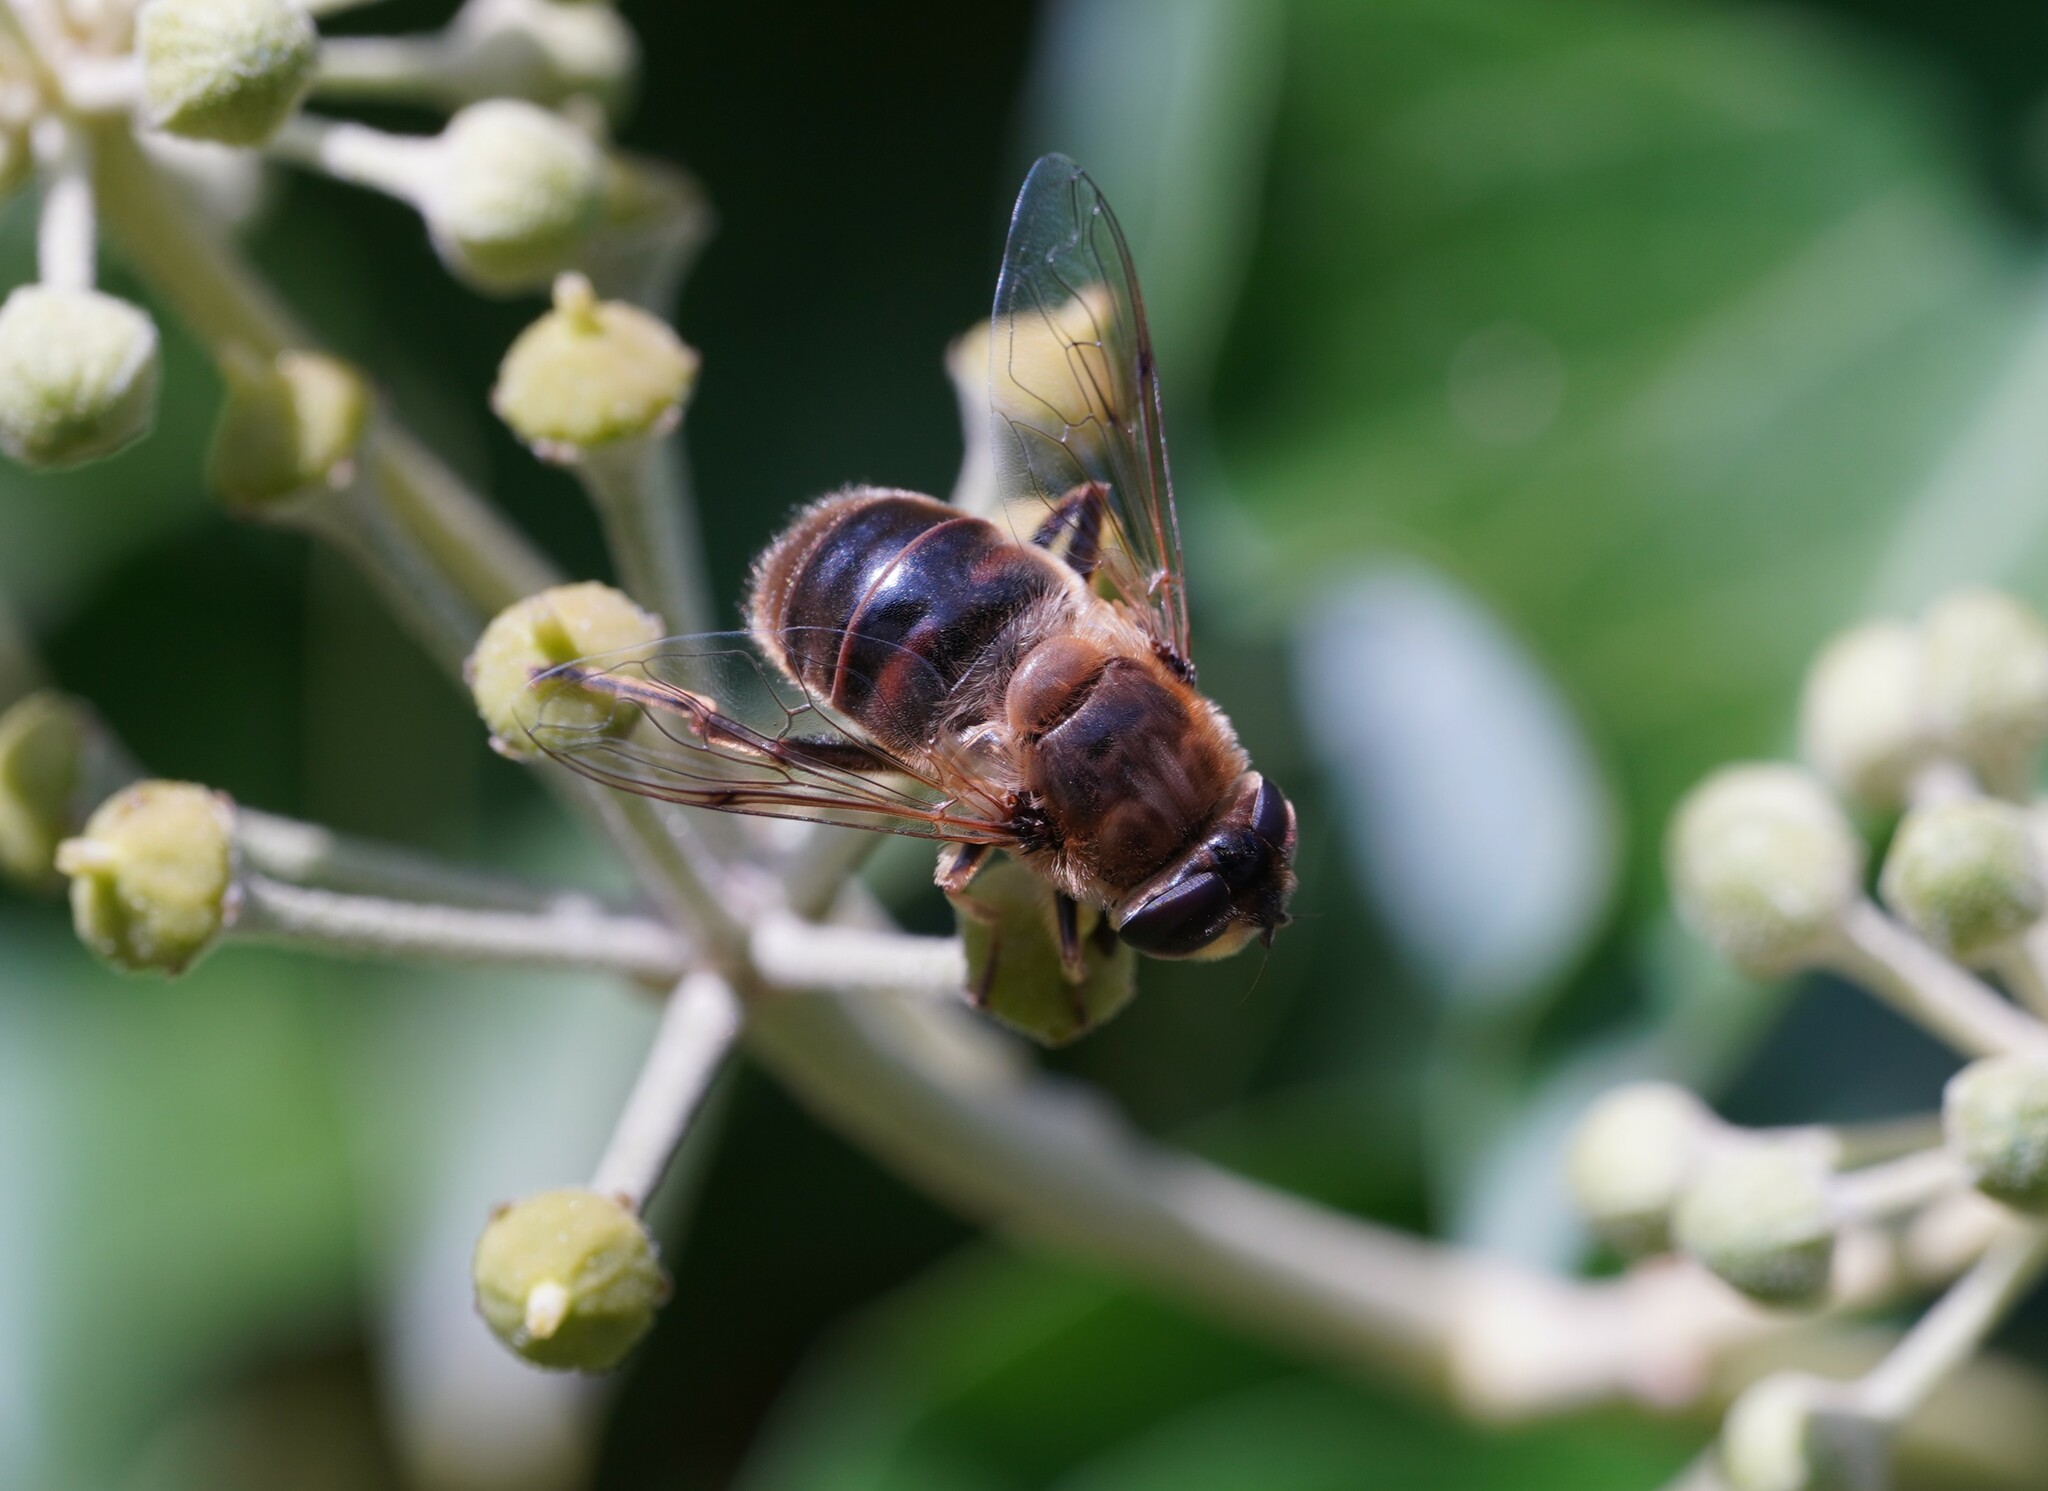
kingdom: Animalia
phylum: Arthropoda
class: Insecta
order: Diptera
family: Syrphidae
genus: Eristalis
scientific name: Eristalis tenax
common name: Drone fly
